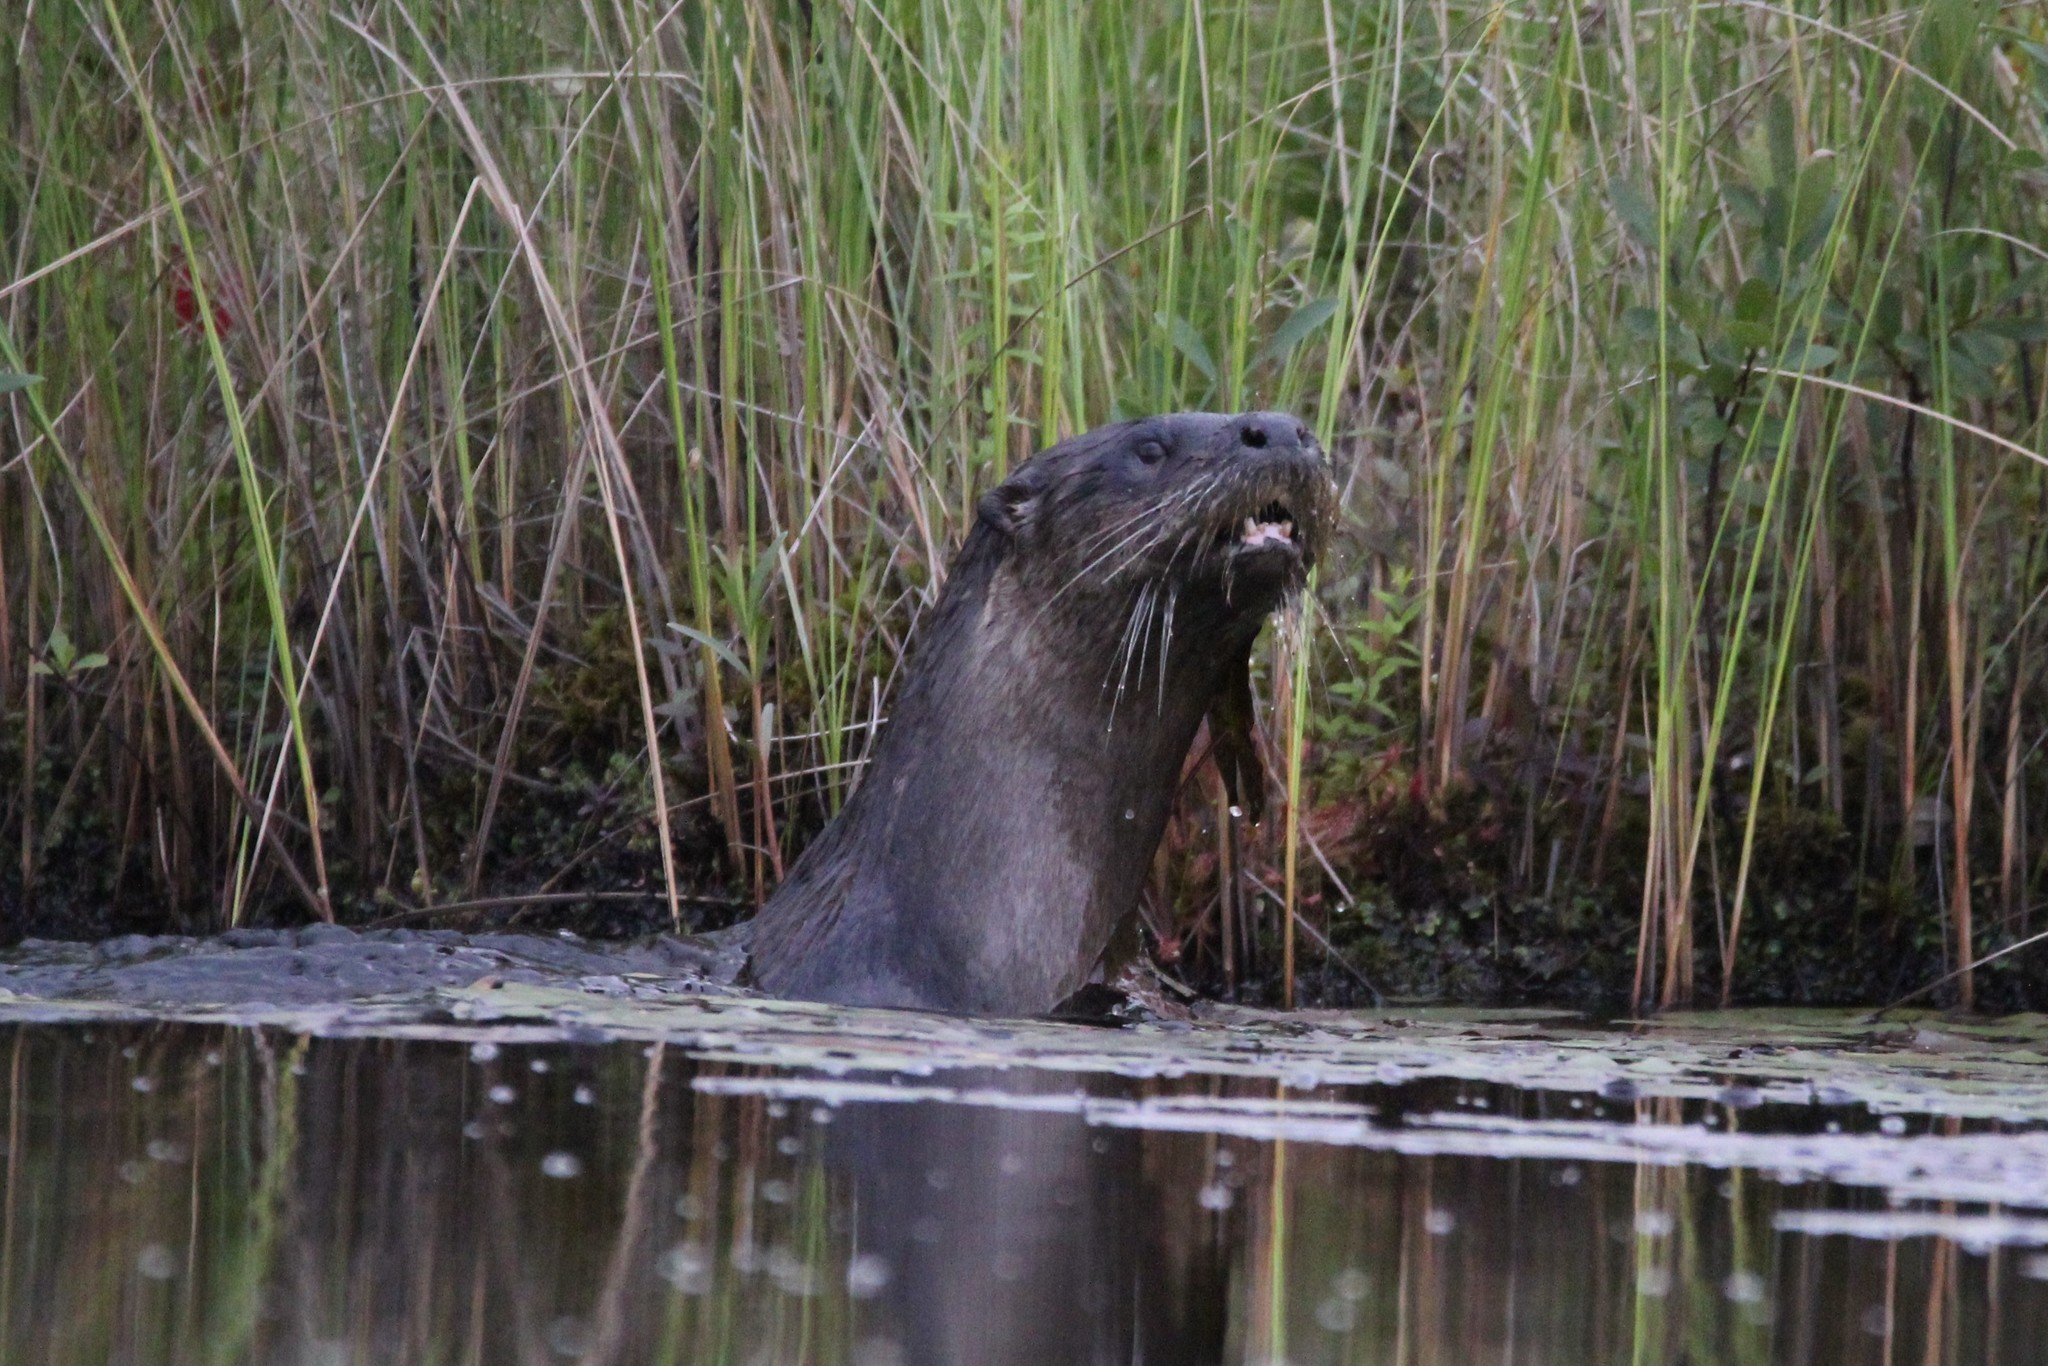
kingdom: Animalia
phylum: Chordata
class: Mammalia
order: Carnivora
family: Mustelidae
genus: Lontra
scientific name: Lontra canadensis
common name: North american river otter
